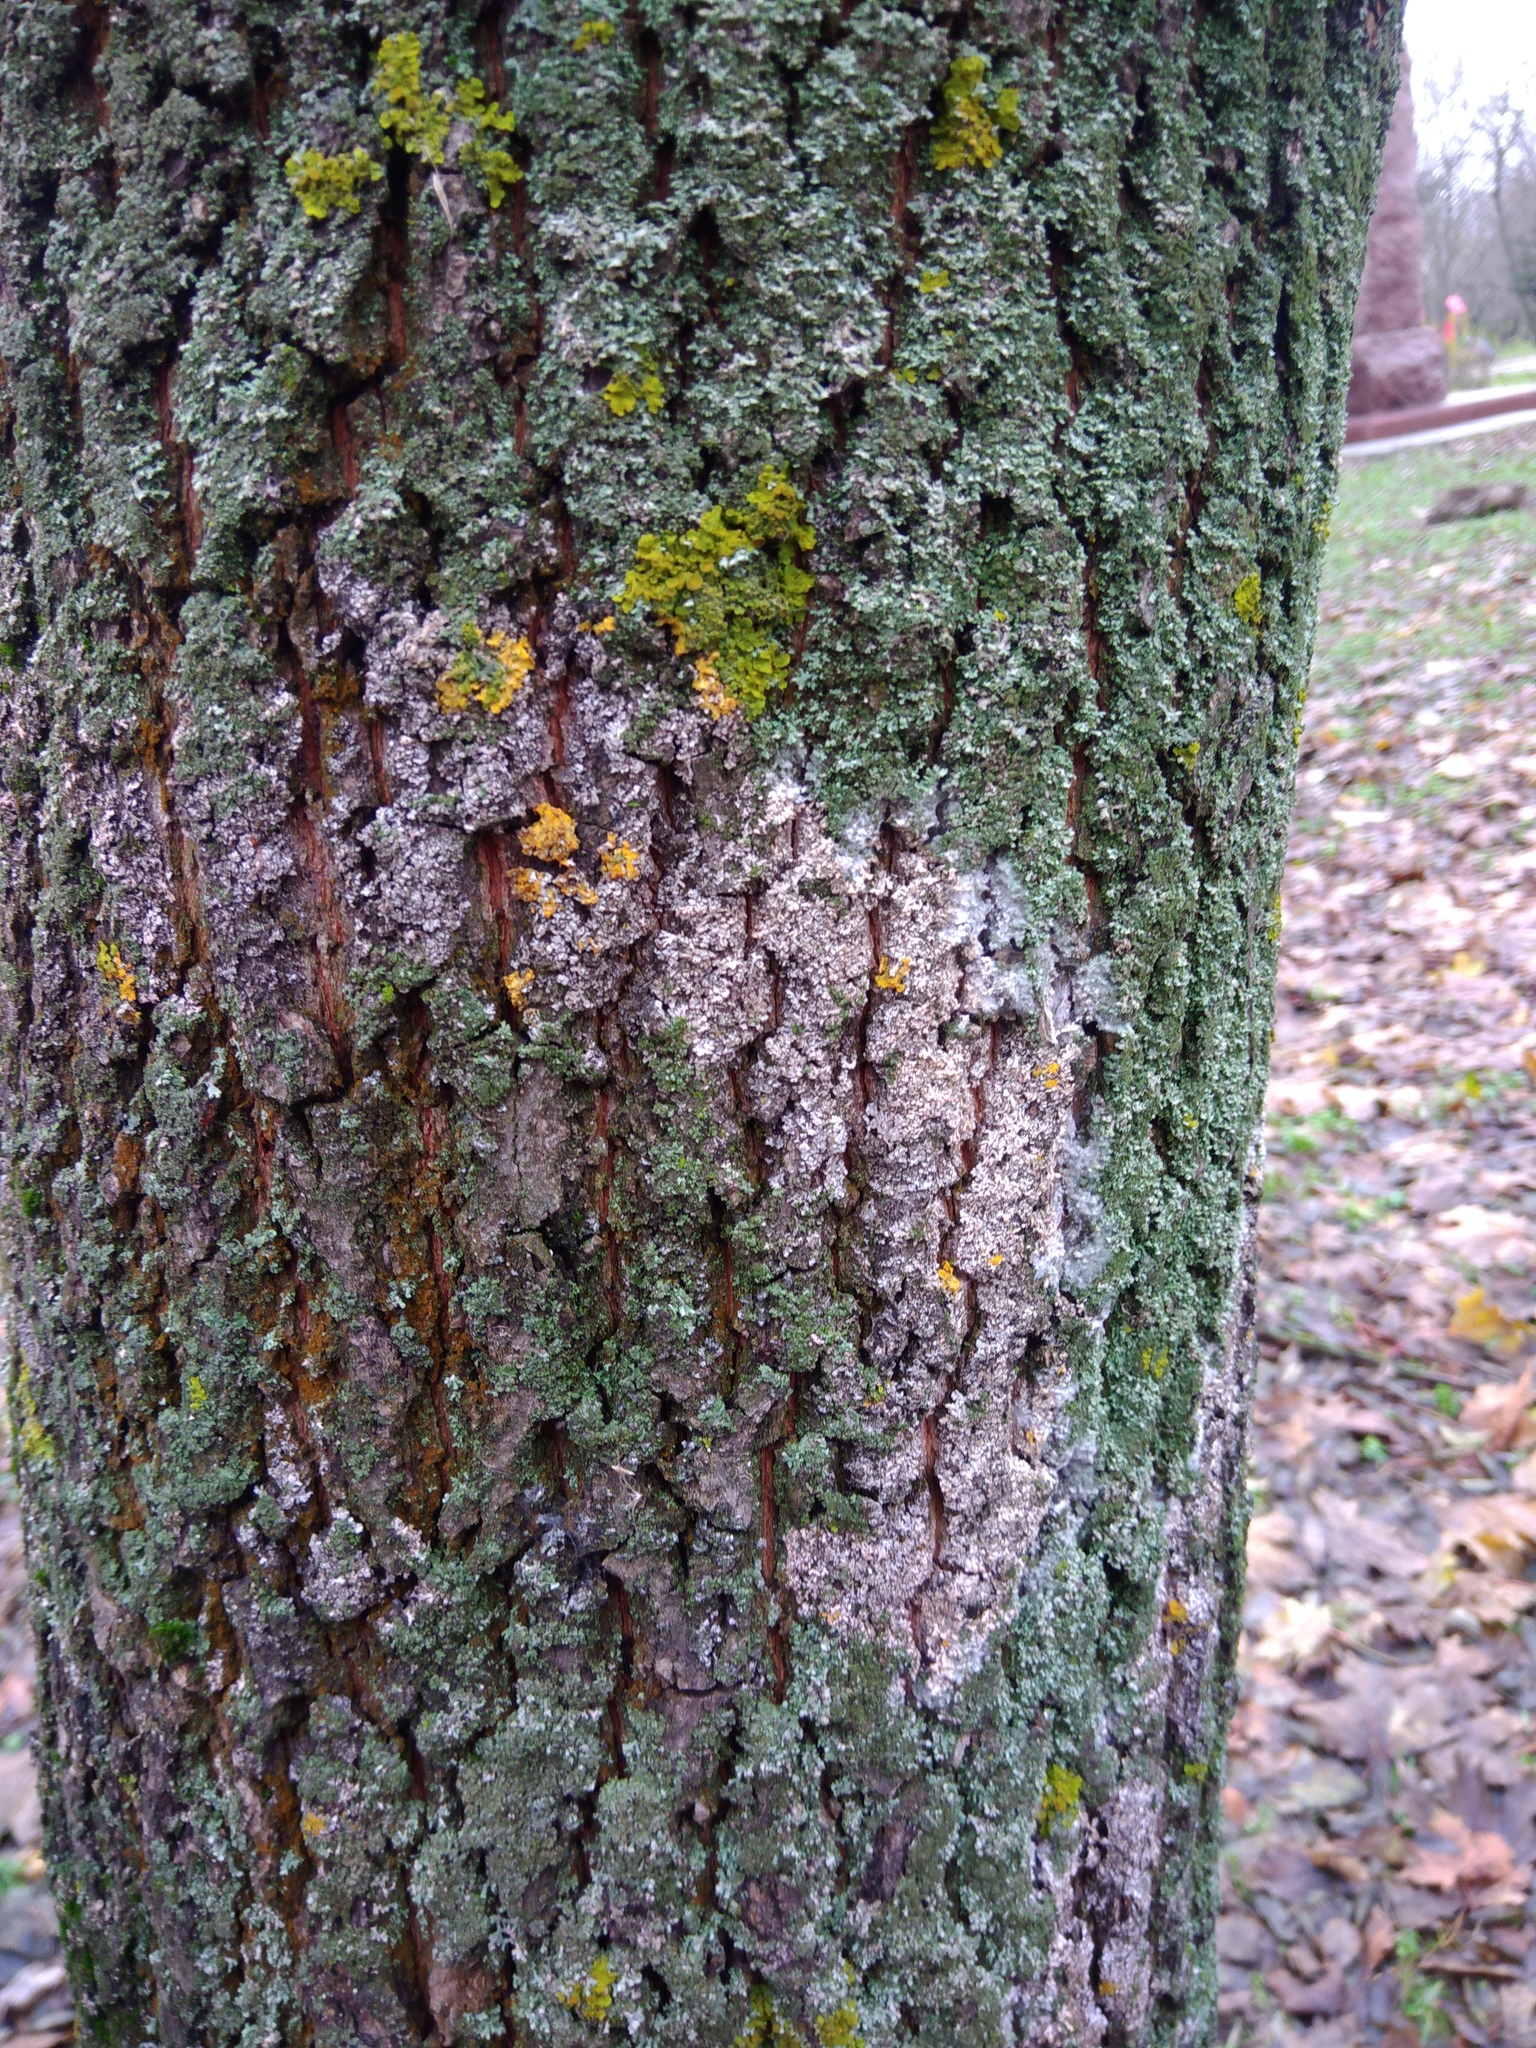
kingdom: Fungi
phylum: Basidiomycota
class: Agaricomycetes
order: Atheliales
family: Atheliaceae
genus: Athelia
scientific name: Athelia arachnoidea
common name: Candelabra duster
